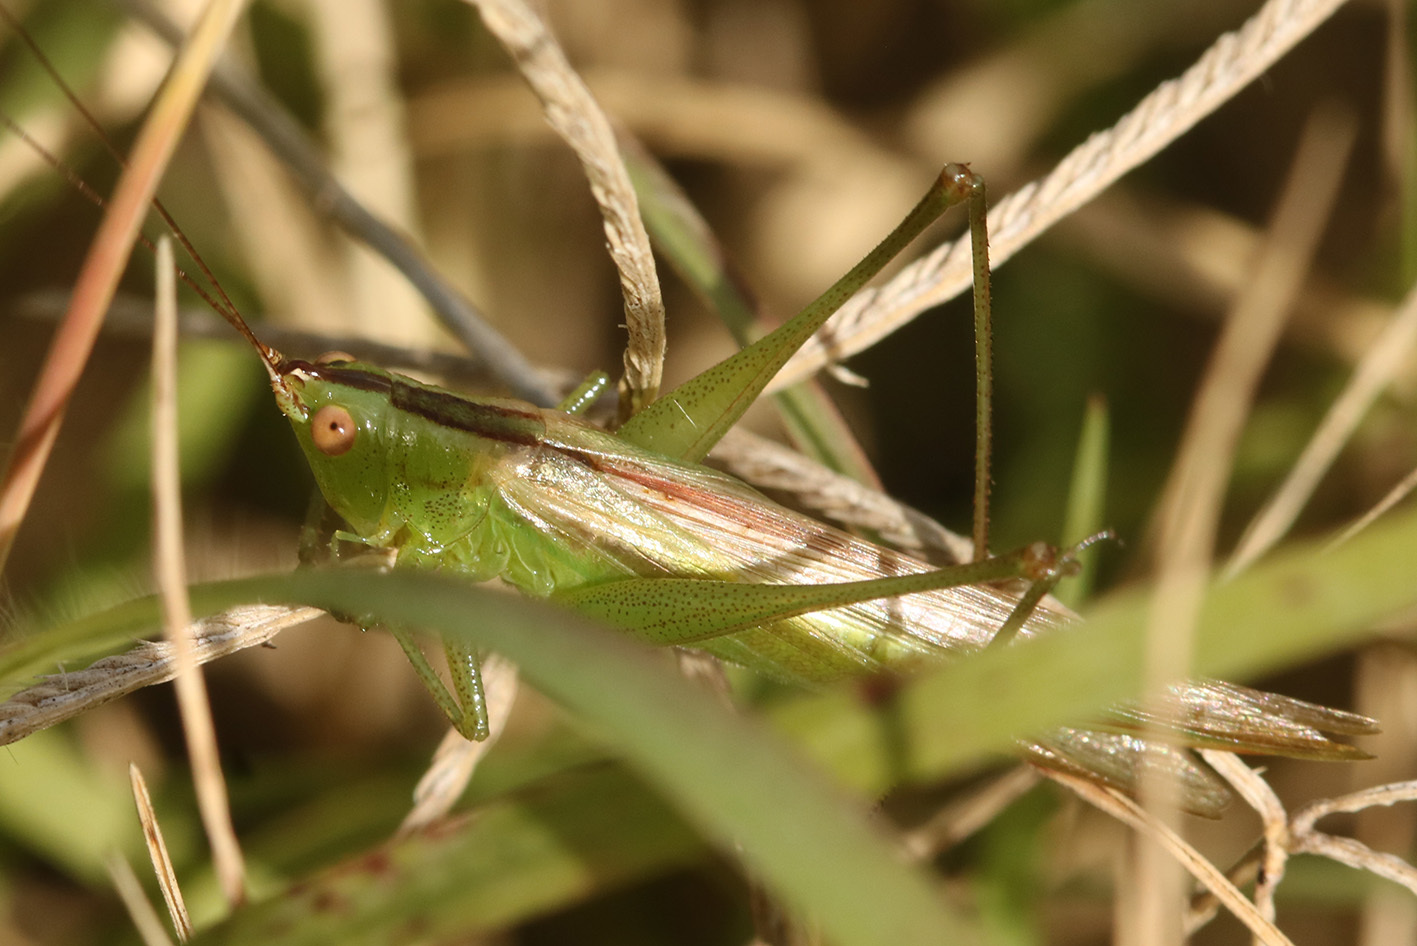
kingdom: Animalia
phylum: Arthropoda
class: Insecta
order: Orthoptera
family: Tettigoniidae
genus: Conocephalus
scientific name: Conocephalus longipes
